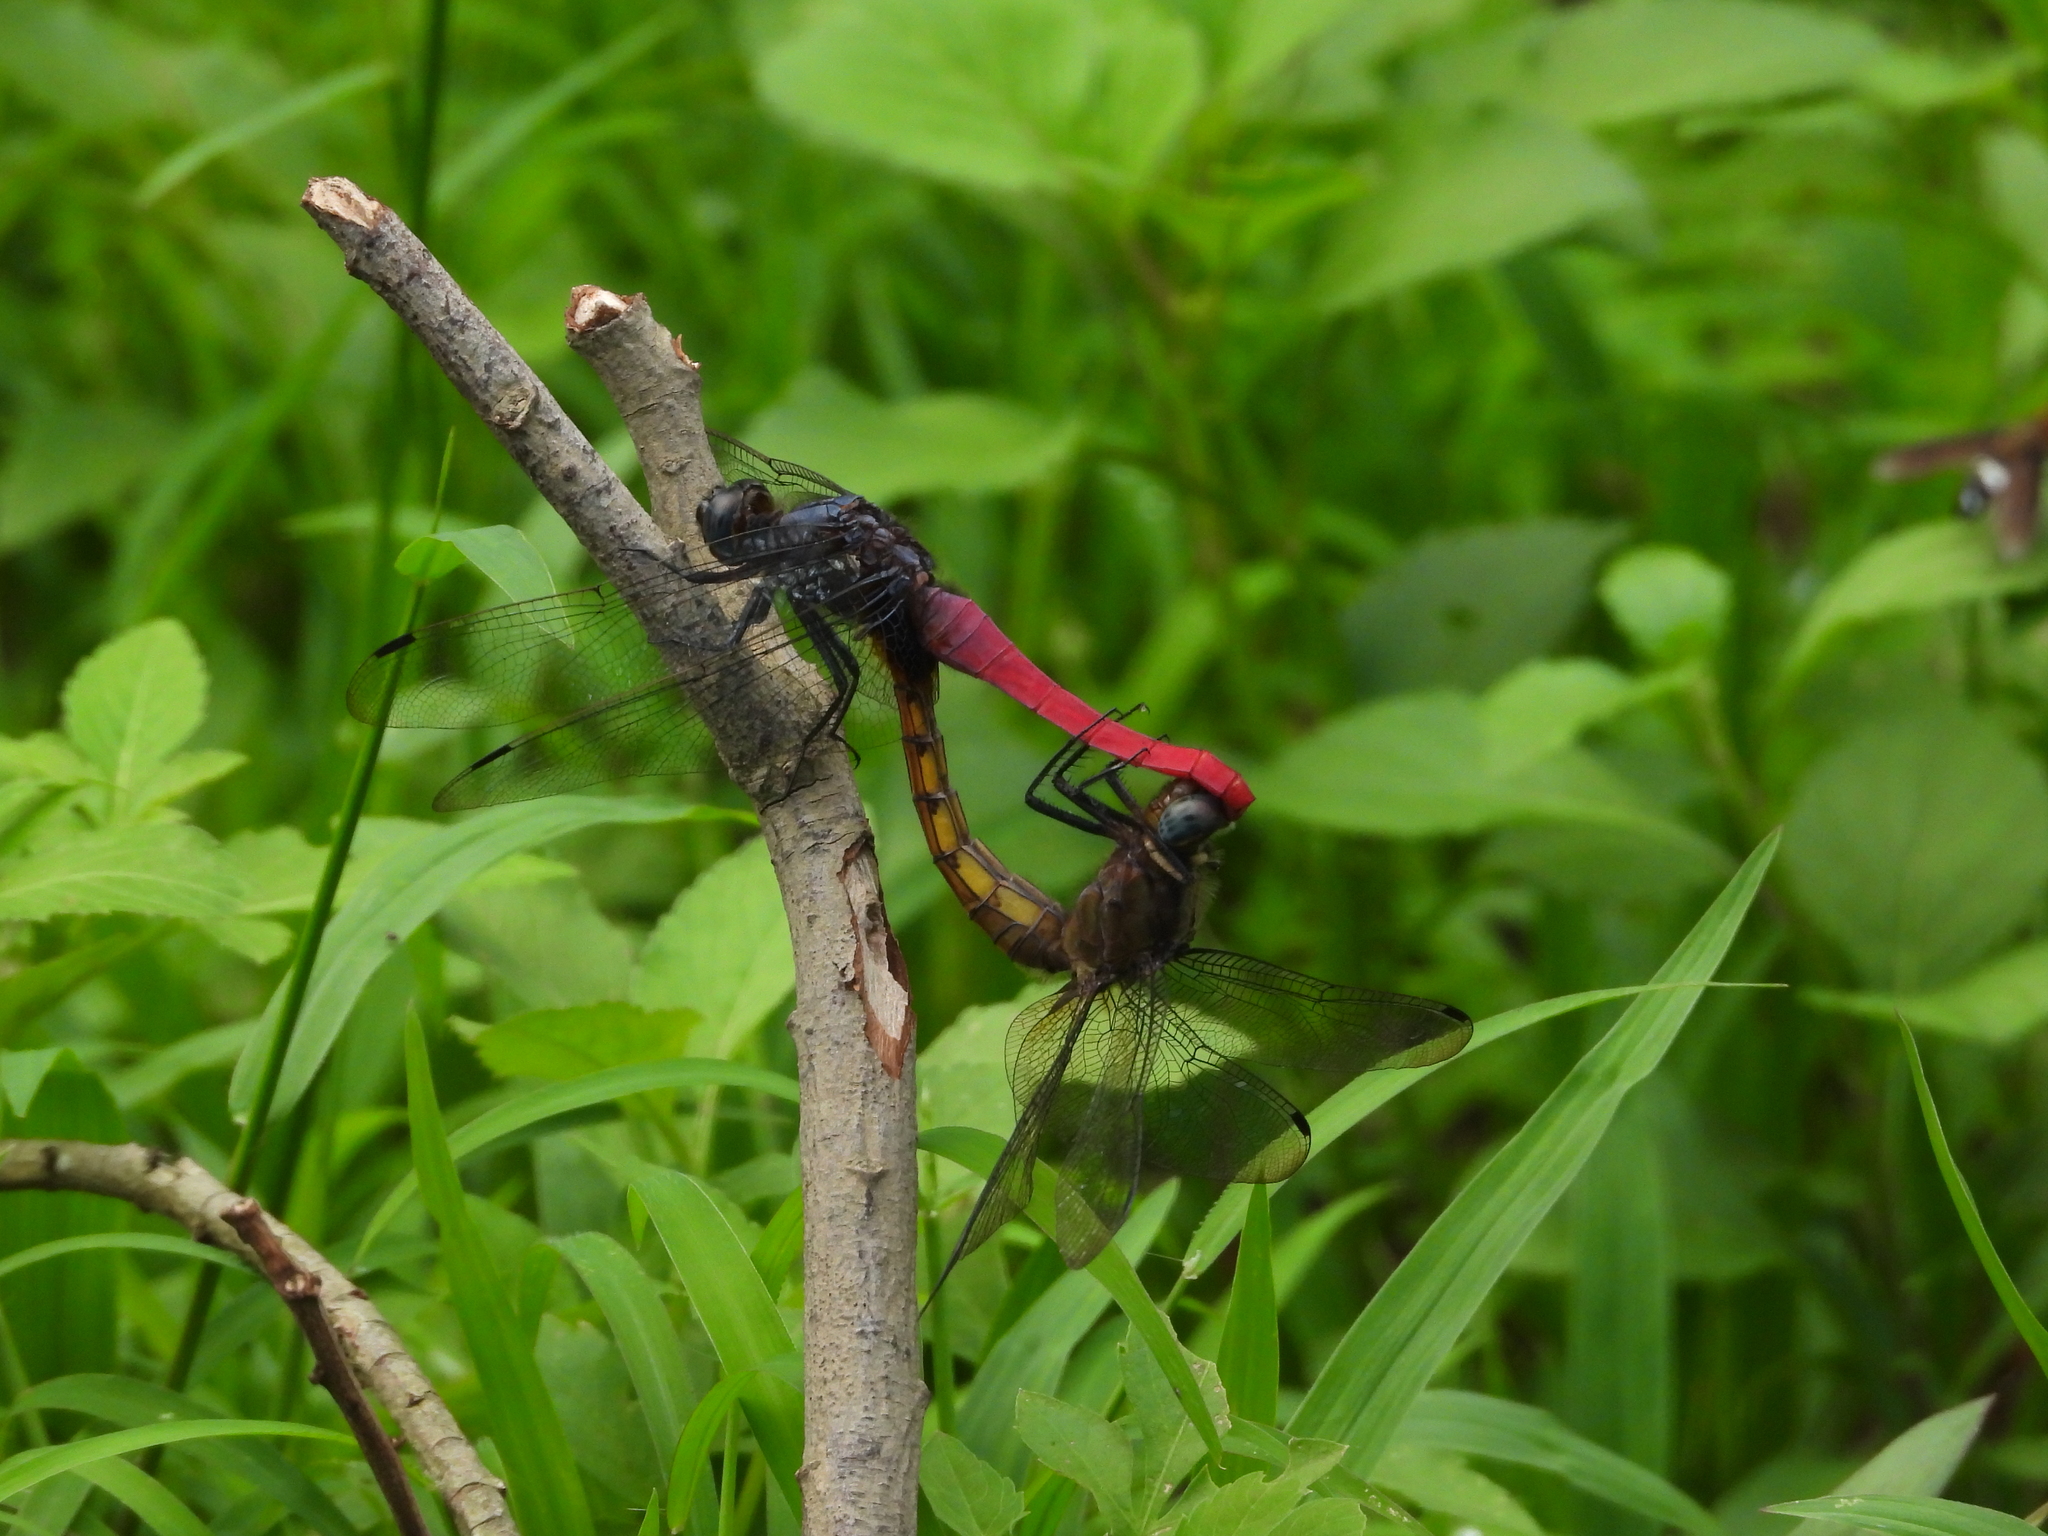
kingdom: Animalia
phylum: Arthropoda
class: Insecta
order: Odonata
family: Libellulidae
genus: Orthetrum
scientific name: Orthetrum pruinosum
